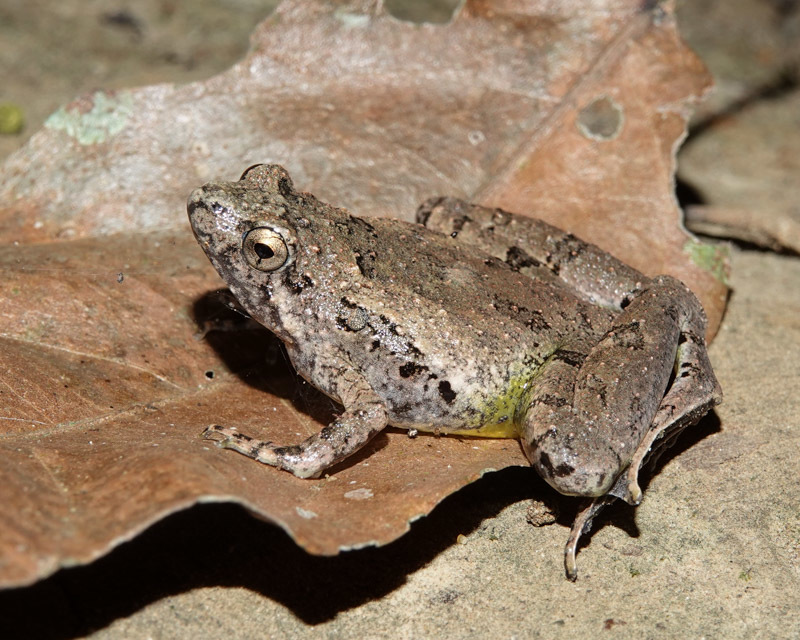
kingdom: Animalia
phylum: Chordata
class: Amphibia
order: Anura
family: Microhylidae
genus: Microhyla
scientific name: Microhyla berdmorei
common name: Berdmore’s narrow-mouthed frog,large pygmy frog
